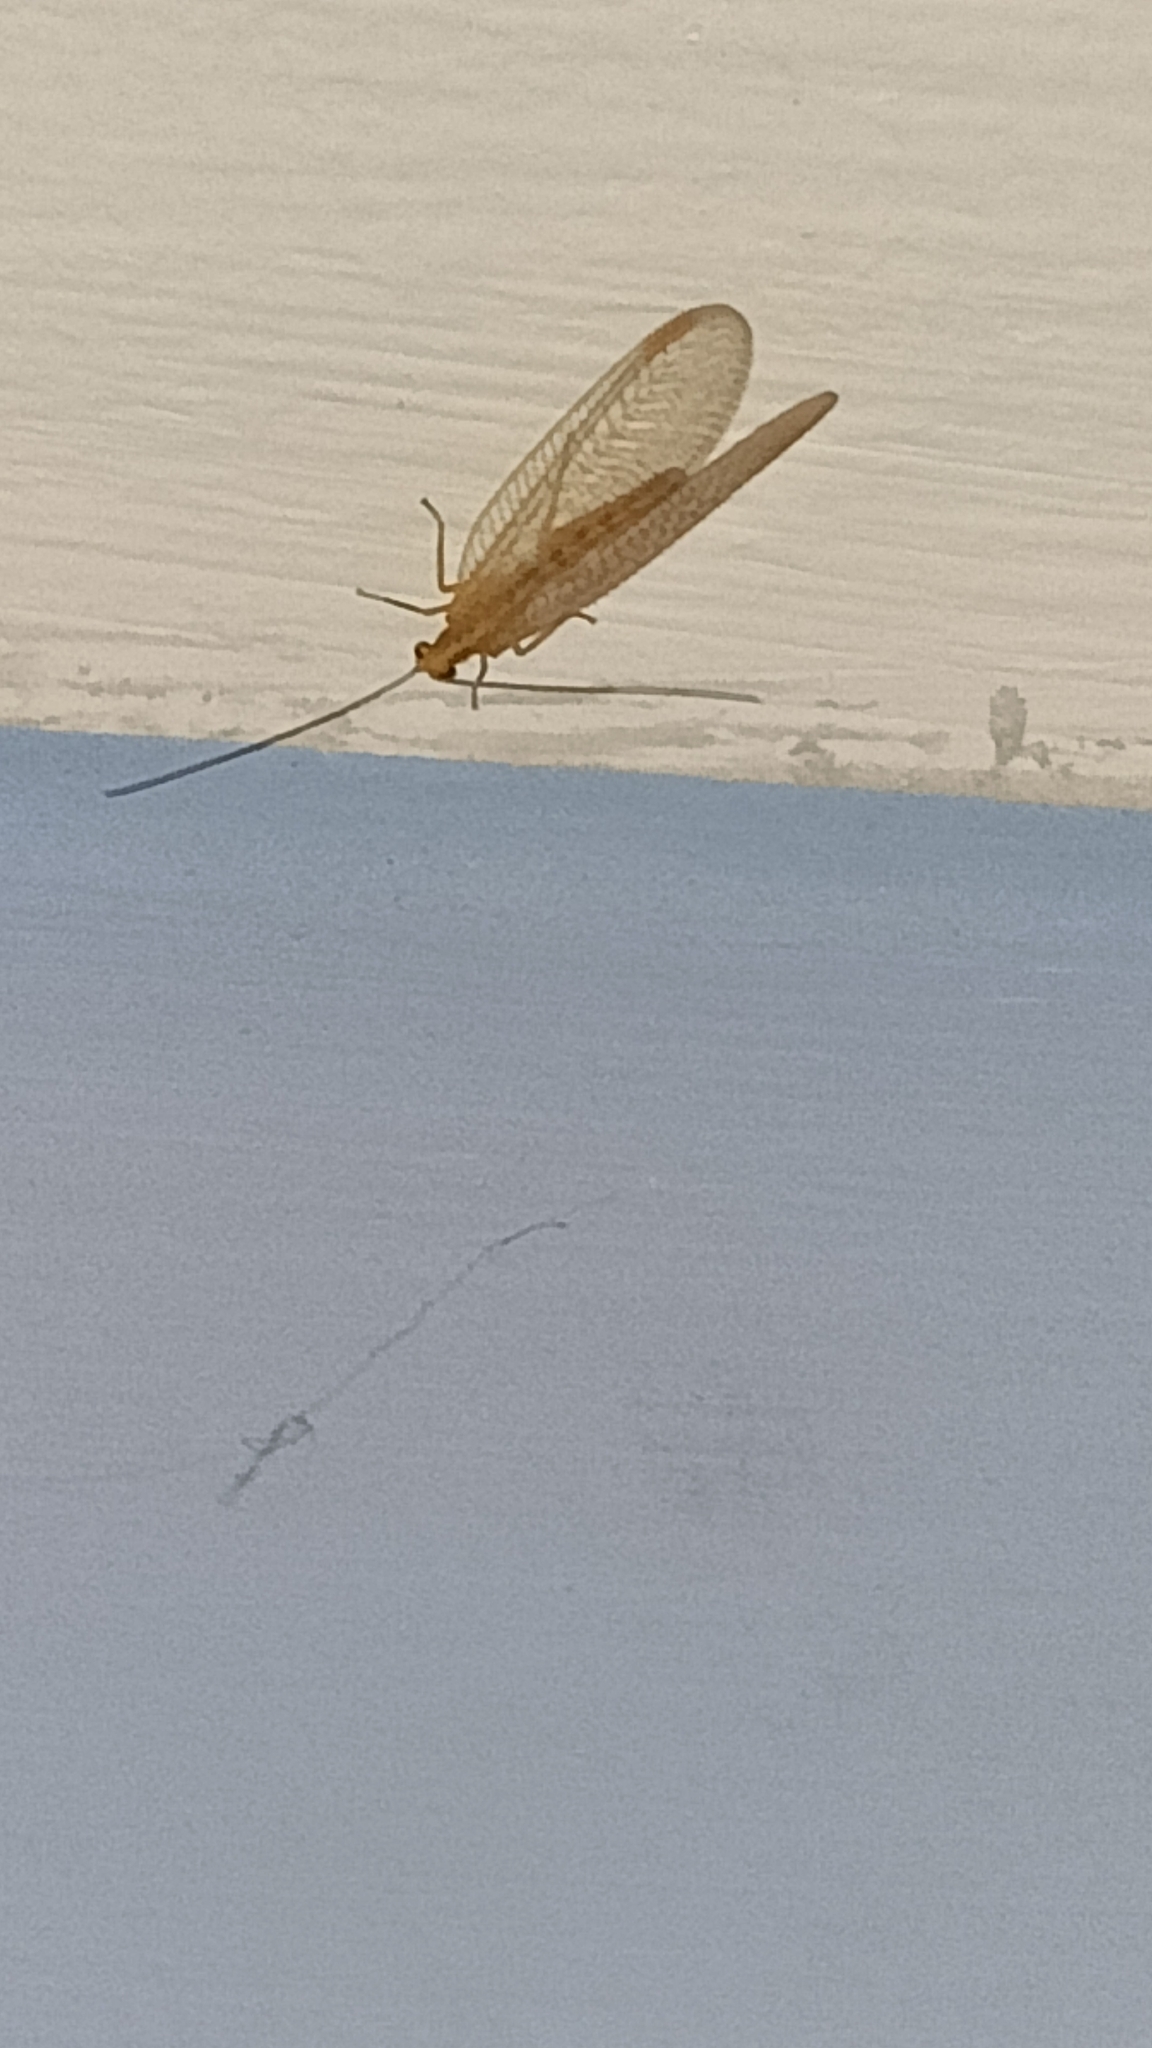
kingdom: Animalia
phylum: Arthropoda
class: Insecta
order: Neuroptera
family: Chrysopidae
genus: Chrysoperla
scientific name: Chrysoperla
